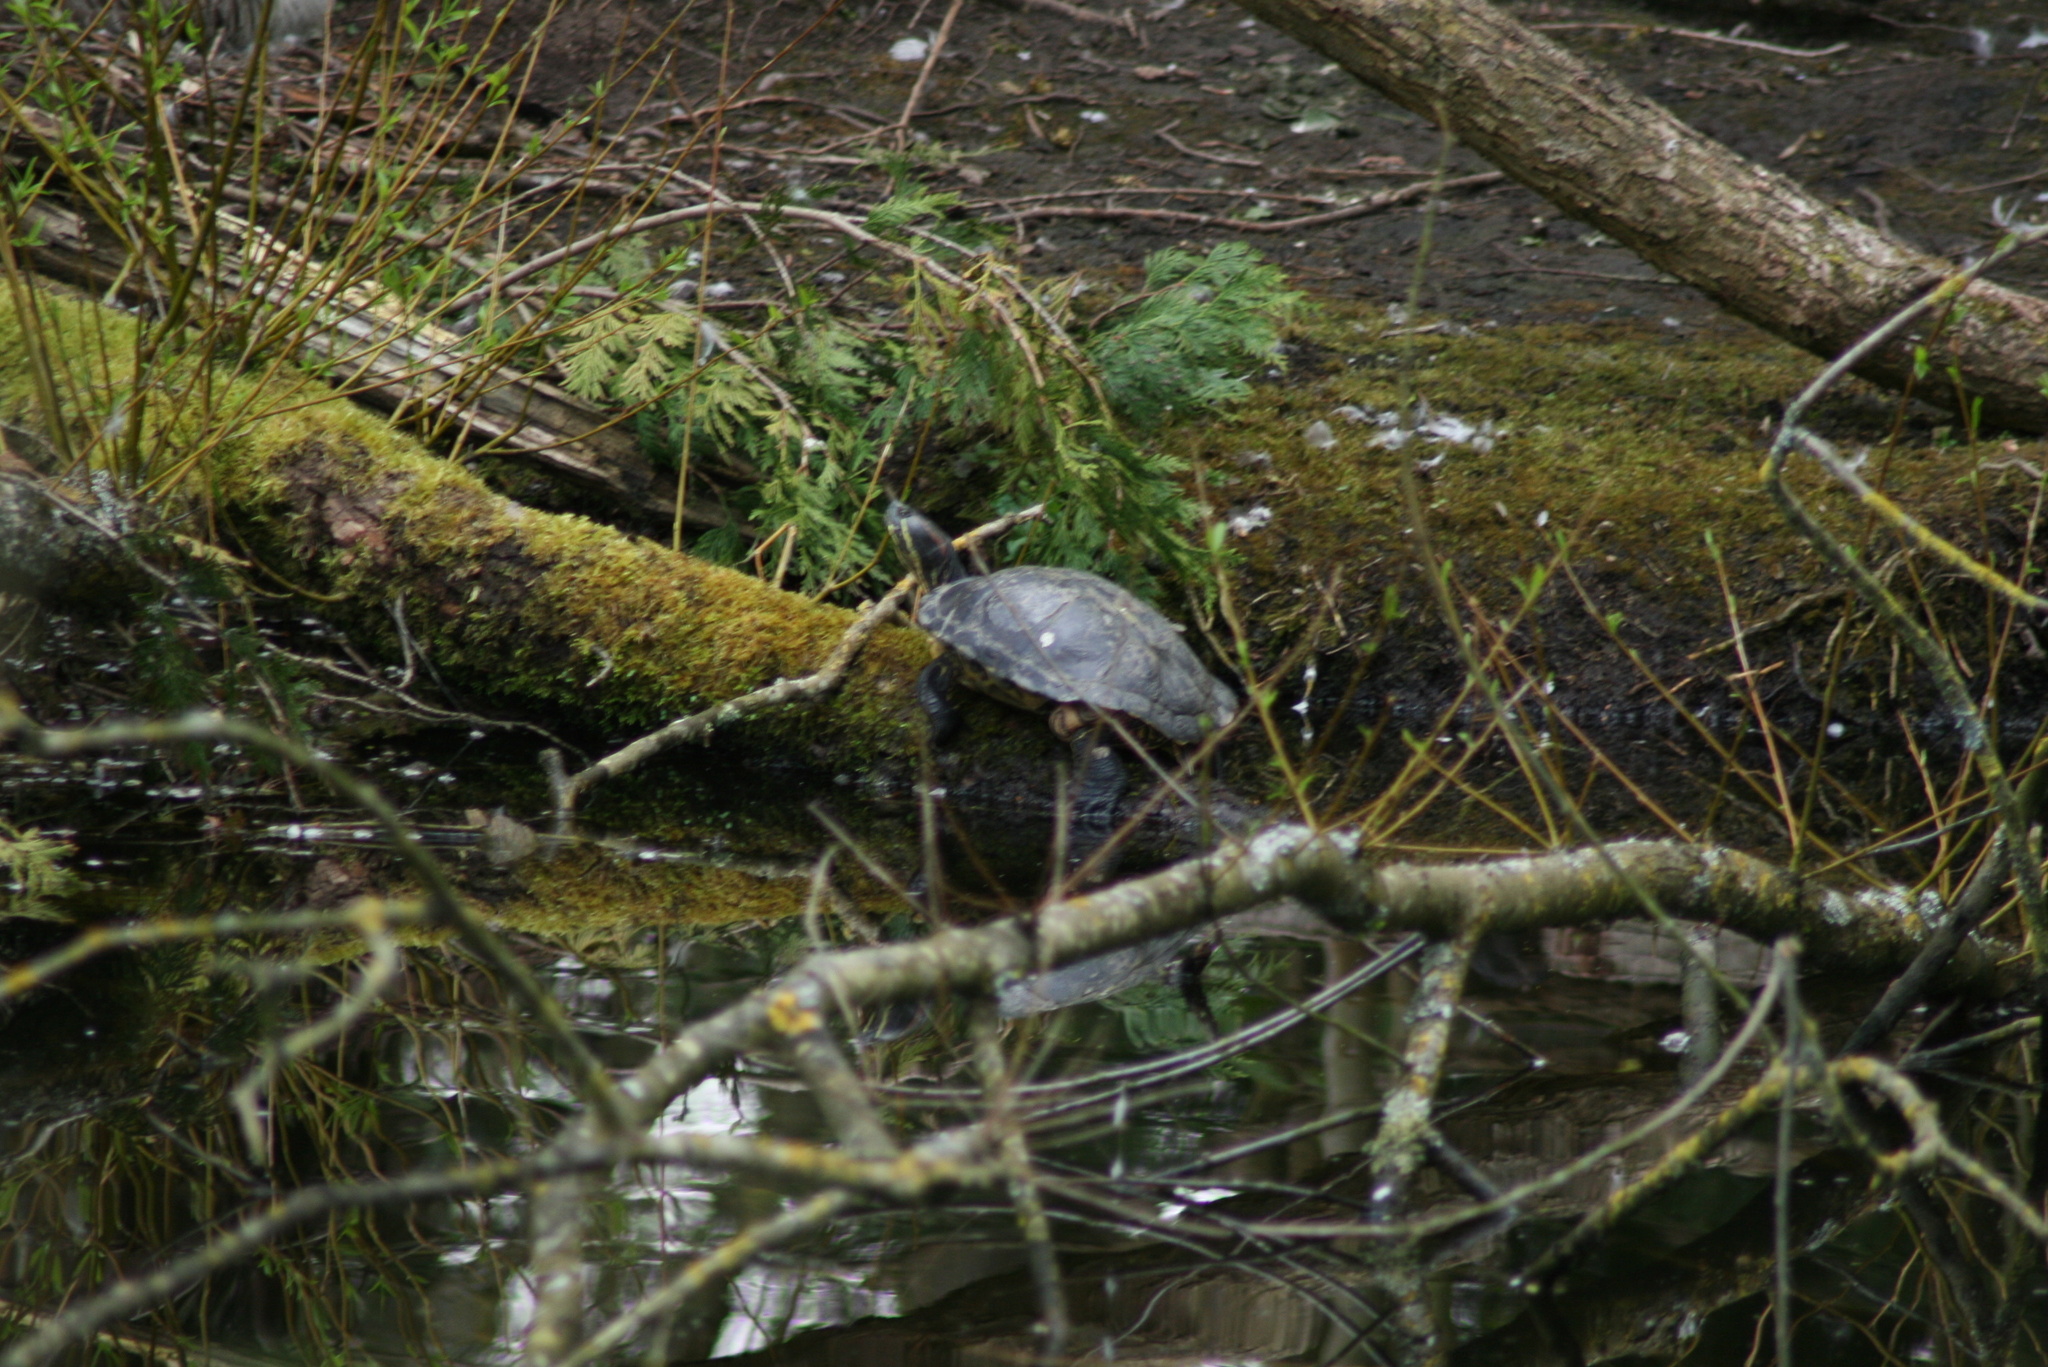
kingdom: Animalia
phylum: Chordata
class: Aves
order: Passeriformes
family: Corvidae
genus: Coloeus
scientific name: Coloeus monedula
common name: Western jackdaw
